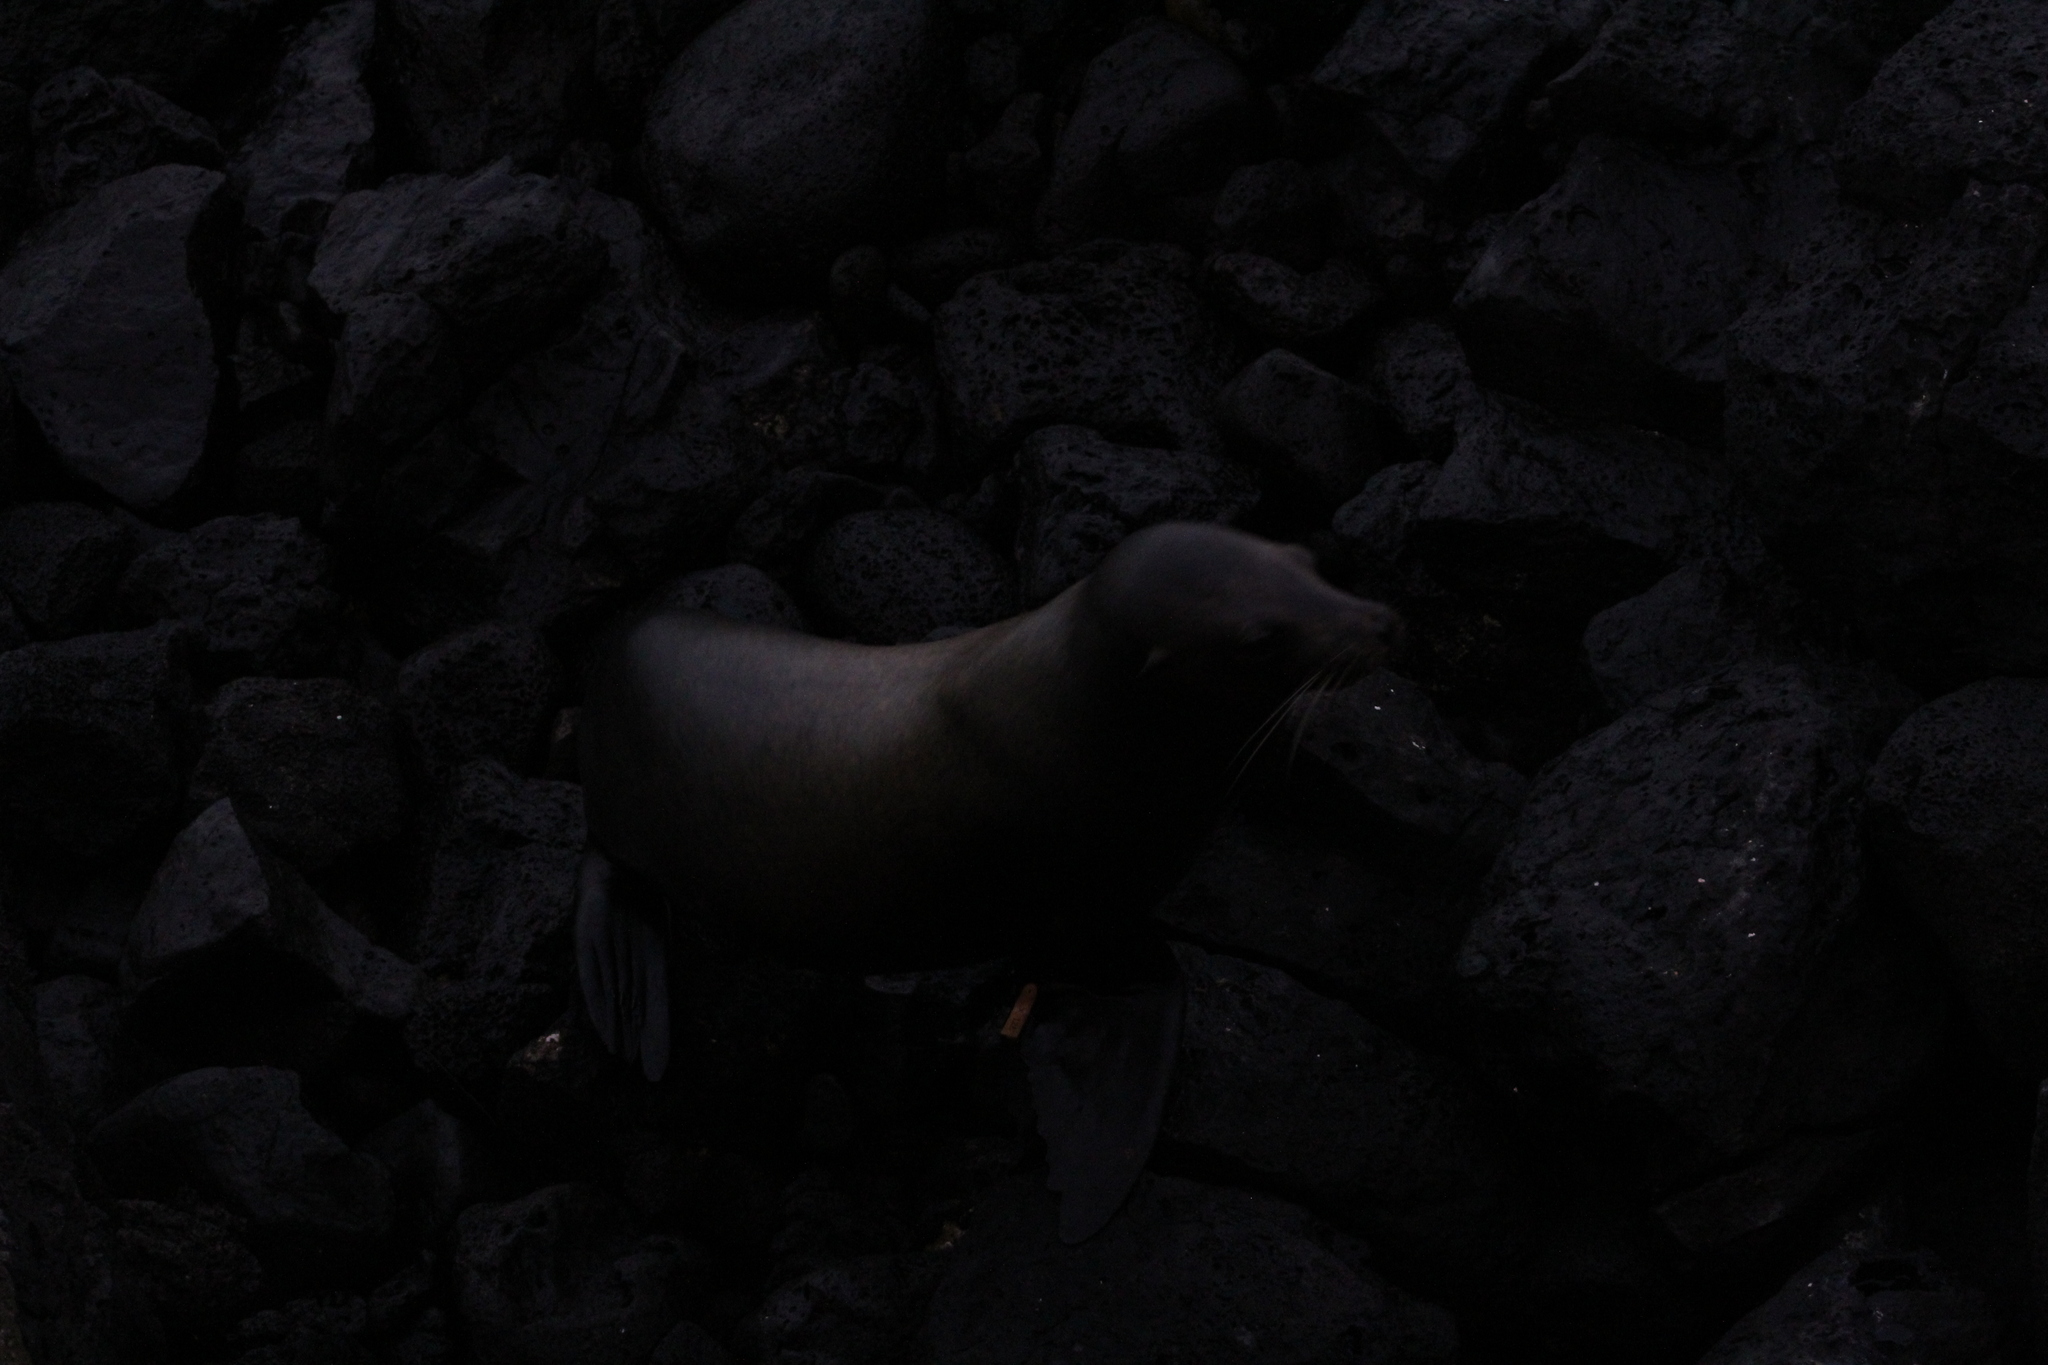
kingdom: Animalia
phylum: Chordata
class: Mammalia
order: Carnivora
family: Otariidae
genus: Zalophus
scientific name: Zalophus wollebaeki
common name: Galapagos sea lion
